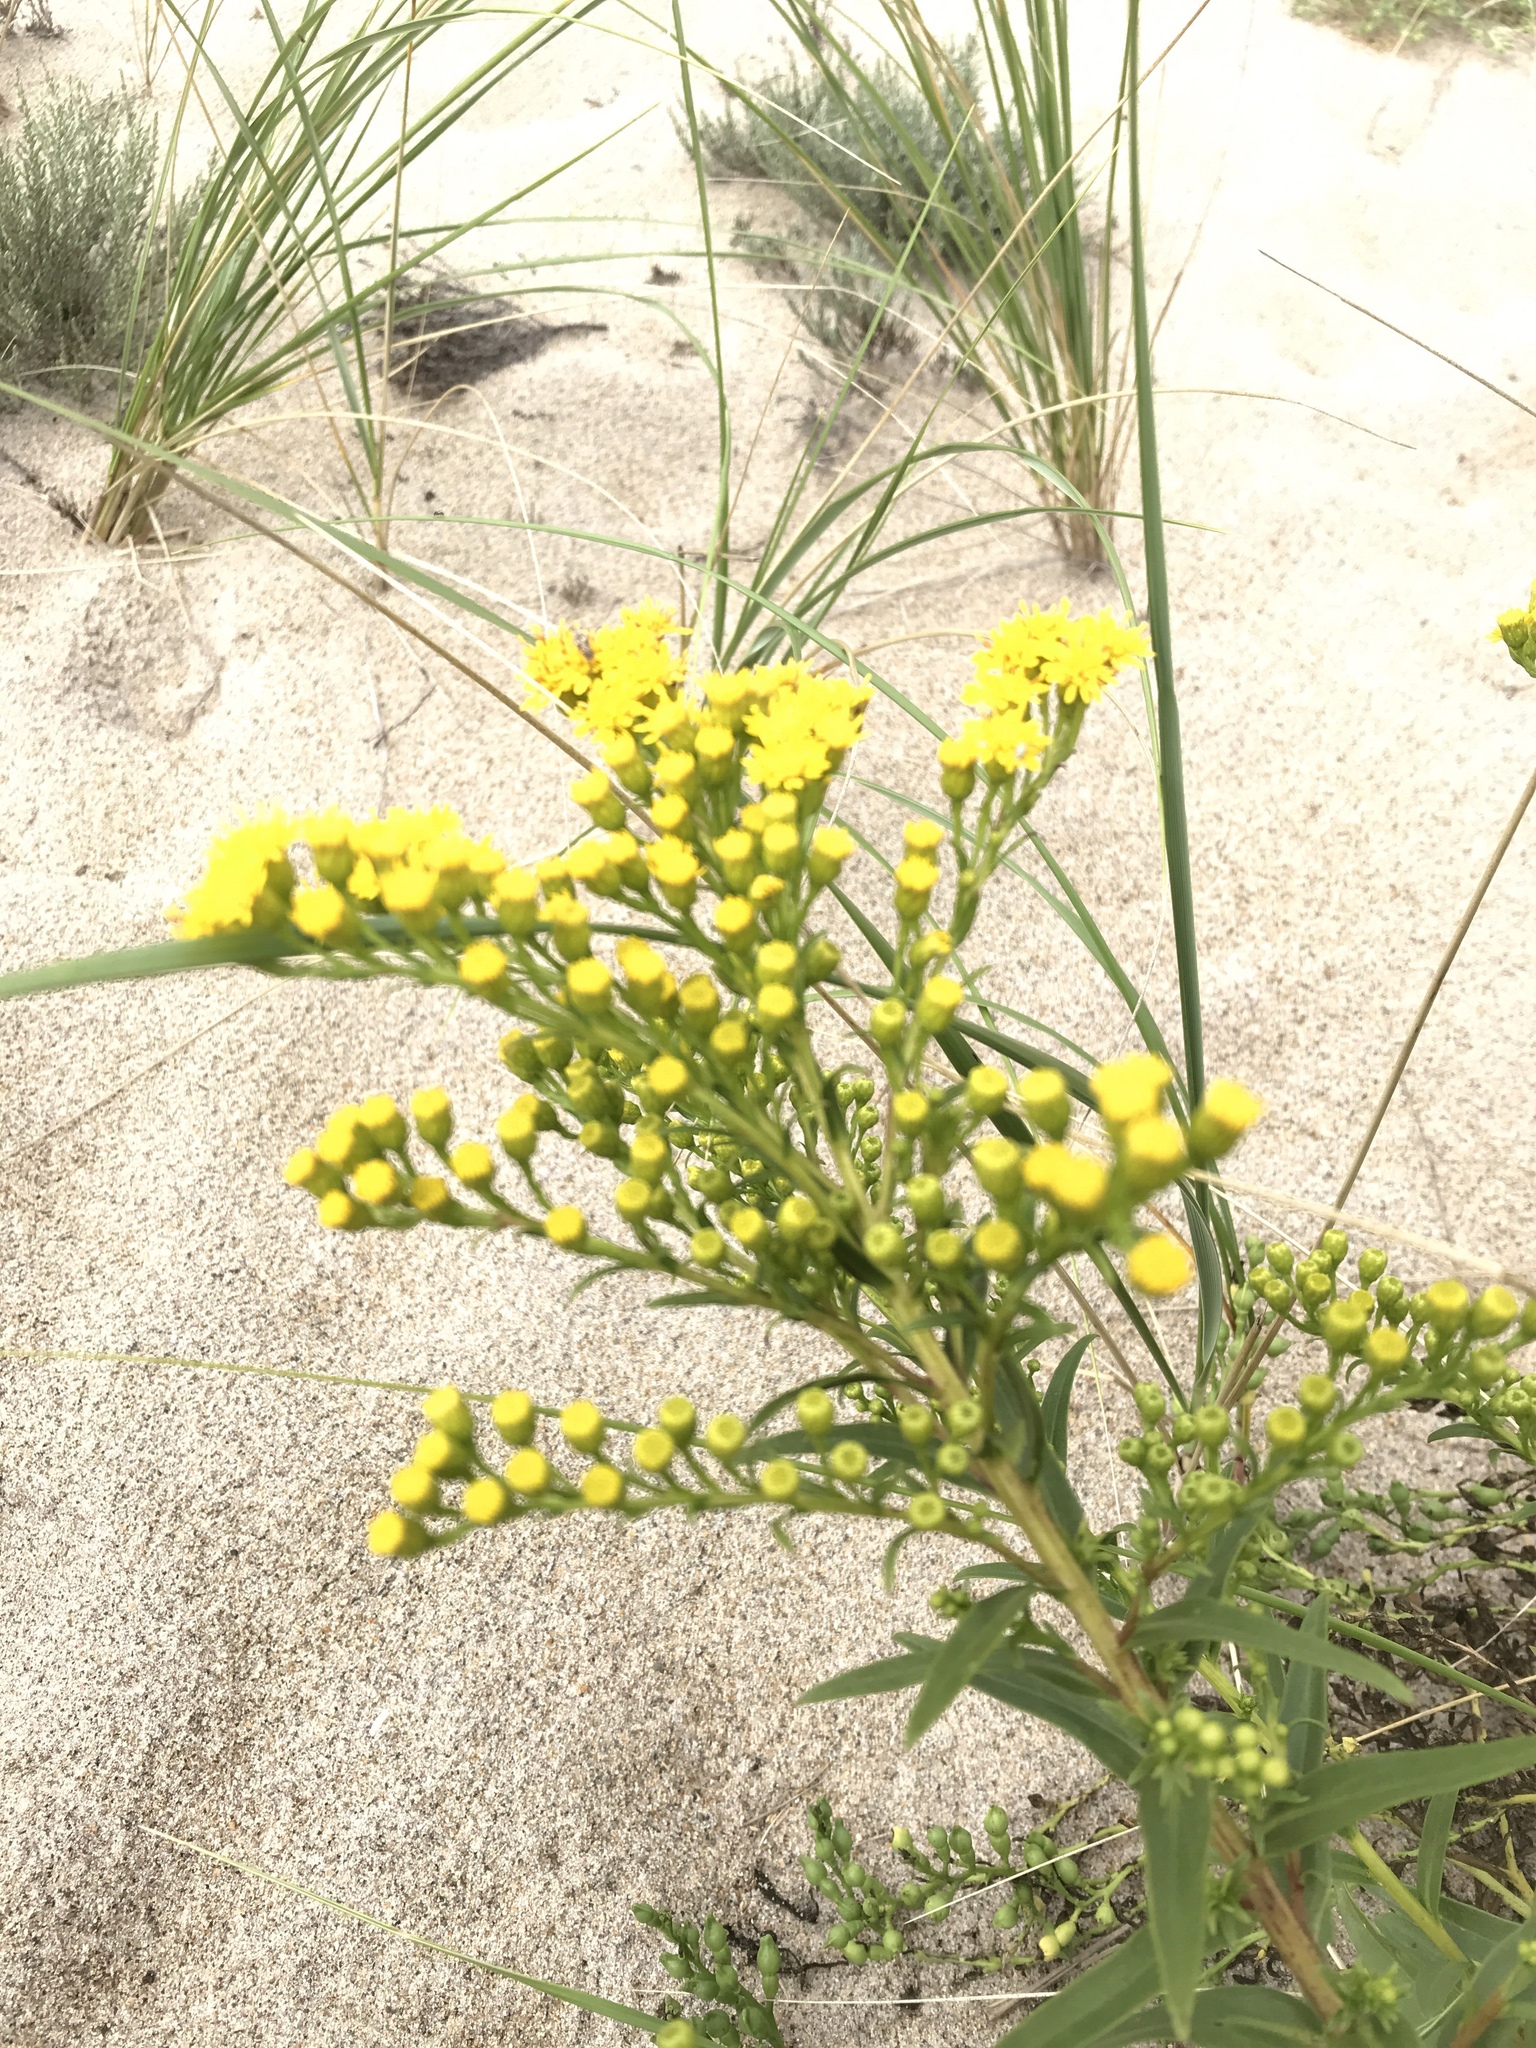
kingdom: Plantae
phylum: Tracheophyta
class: Magnoliopsida
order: Asterales
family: Asteraceae
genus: Solidago
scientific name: Solidago sempervirens
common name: Salt-marsh goldenrod
